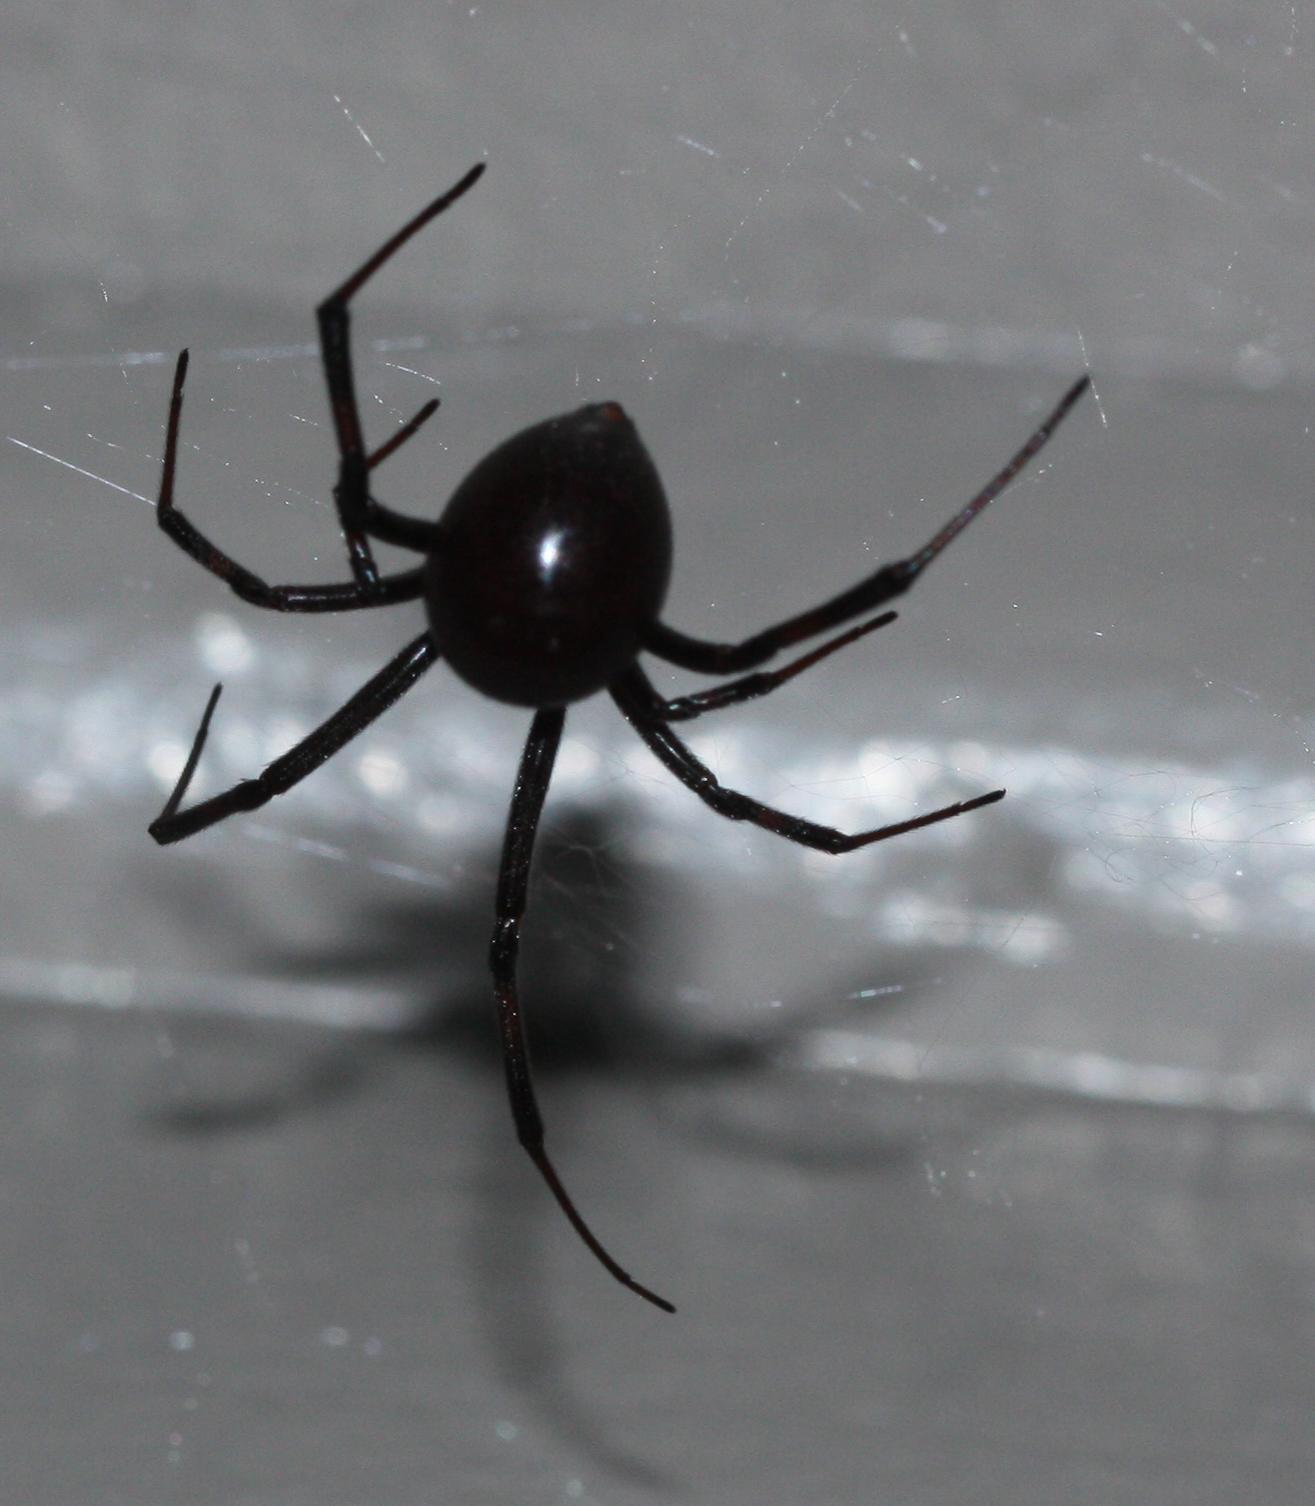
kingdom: Animalia
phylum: Arthropoda
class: Arachnida
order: Araneae
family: Theridiidae
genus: Latrodectus
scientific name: Latrodectus hesperus
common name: Western black widow
